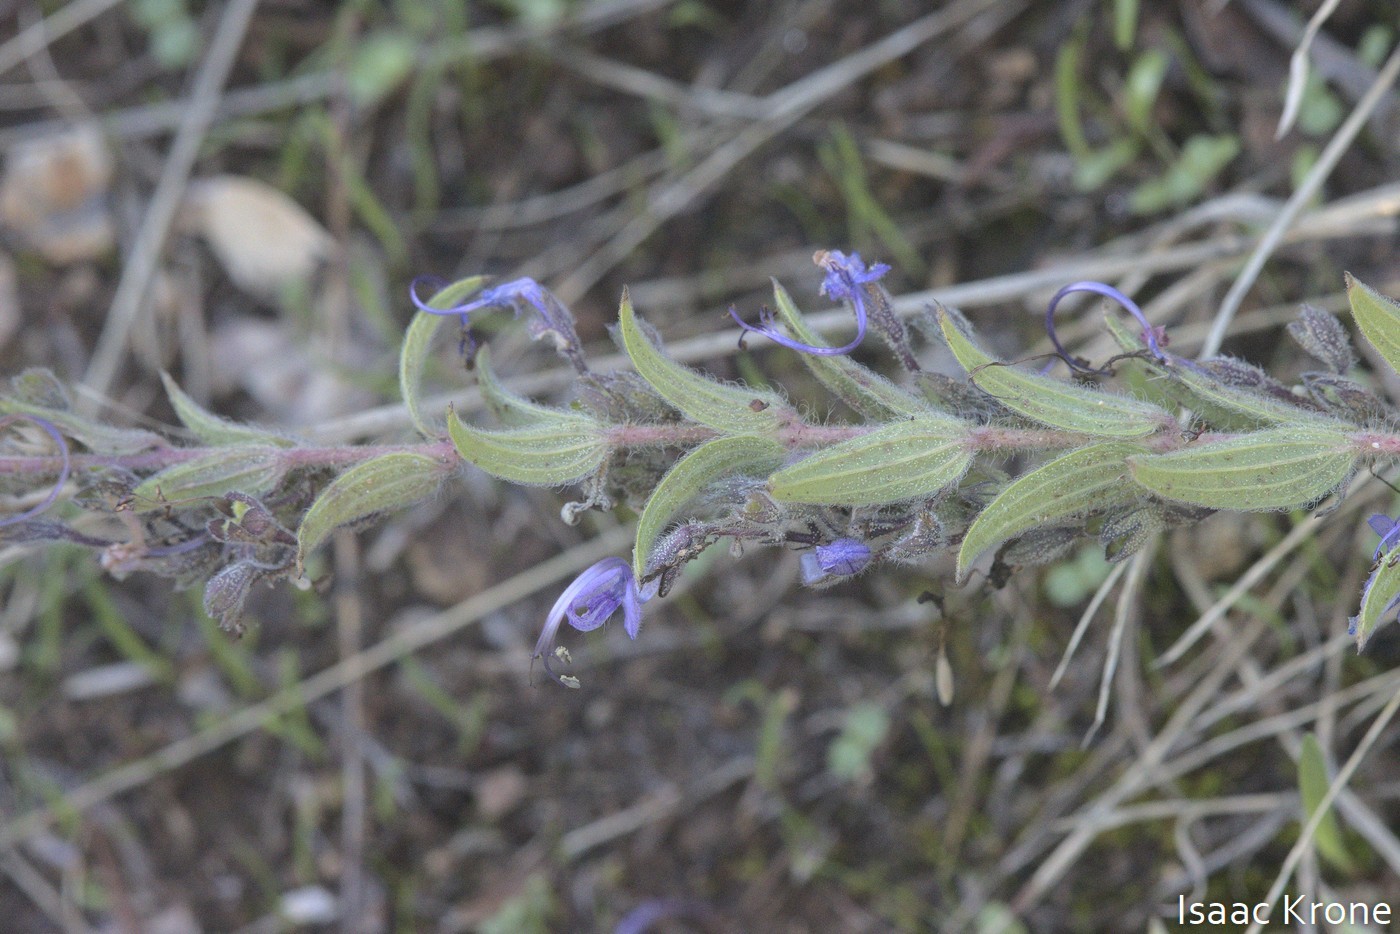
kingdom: Plantae
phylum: Tracheophyta
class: Magnoliopsida
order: Lamiales
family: Lamiaceae
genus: Trichostema
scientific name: Trichostema lanceolatum
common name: Vinegar-weed
